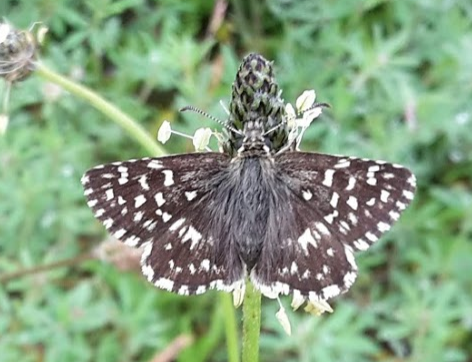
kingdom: Animalia
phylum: Arthropoda
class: Insecta
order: Lepidoptera
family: Hesperiidae
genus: Pyrgus
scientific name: Pyrgus malvae
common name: Grizzled skipper
